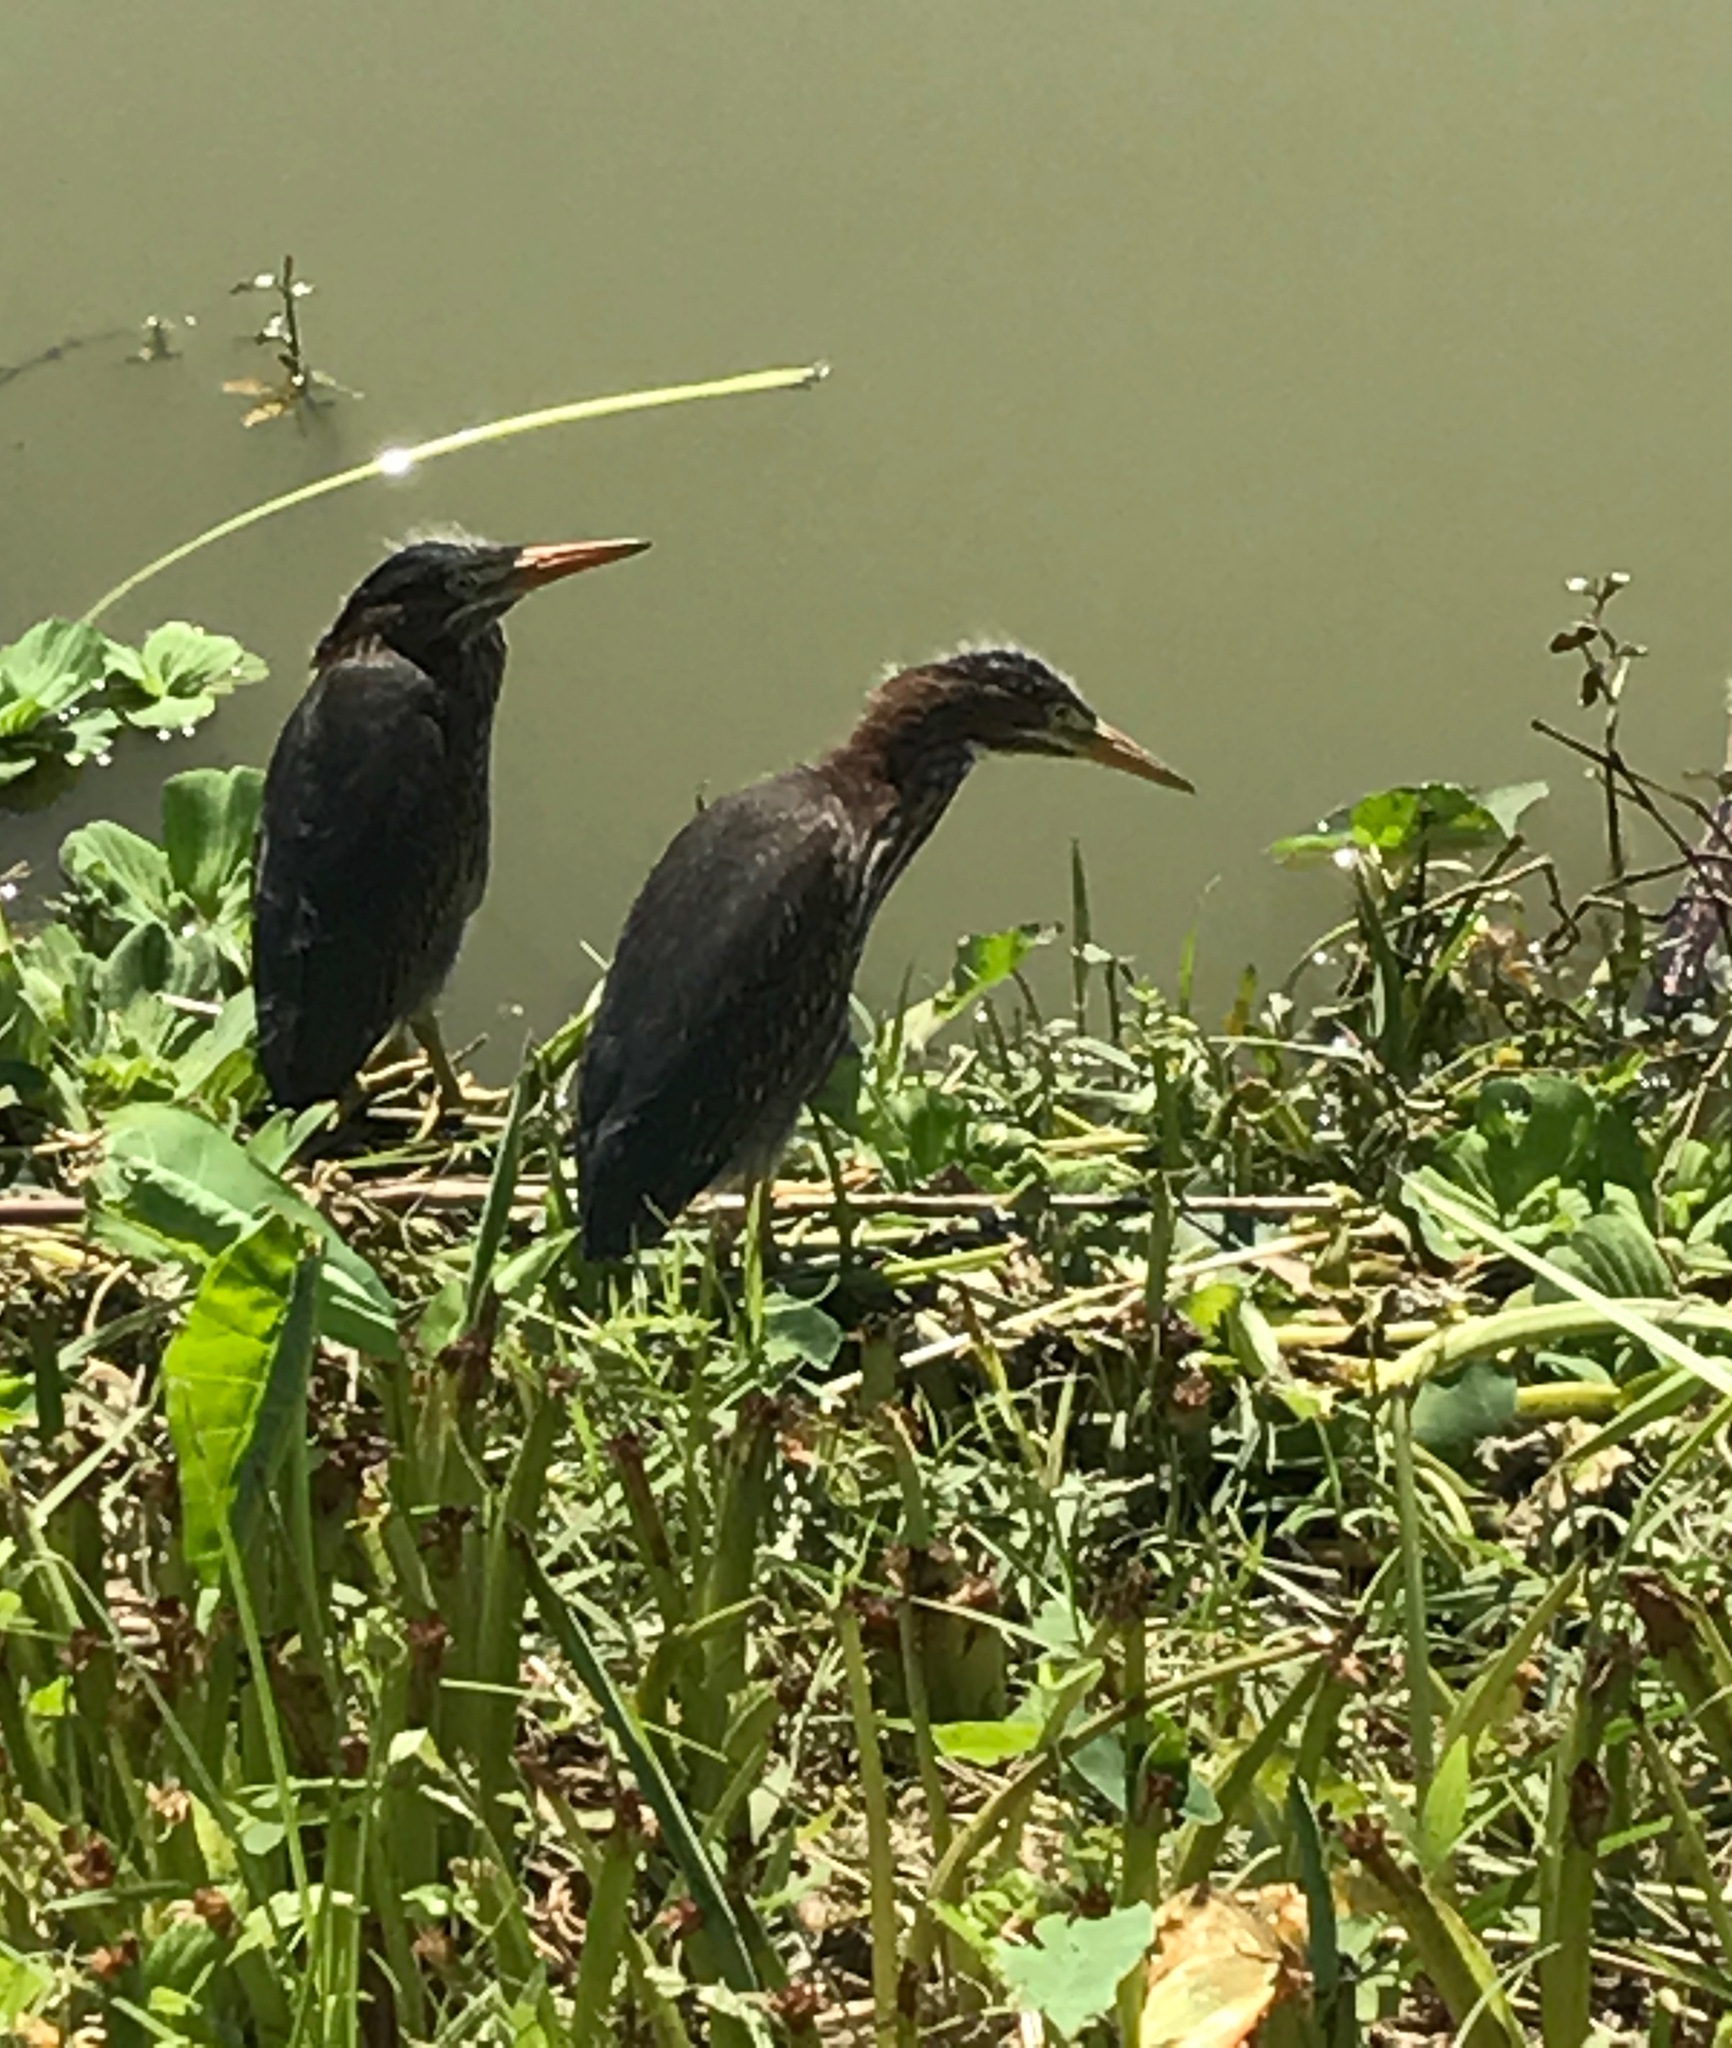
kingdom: Animalia
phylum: Chordata
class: Aves
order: Pelecaniformes
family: Ardeidae
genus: Butorides
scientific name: Butorides virescens
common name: Green heron
